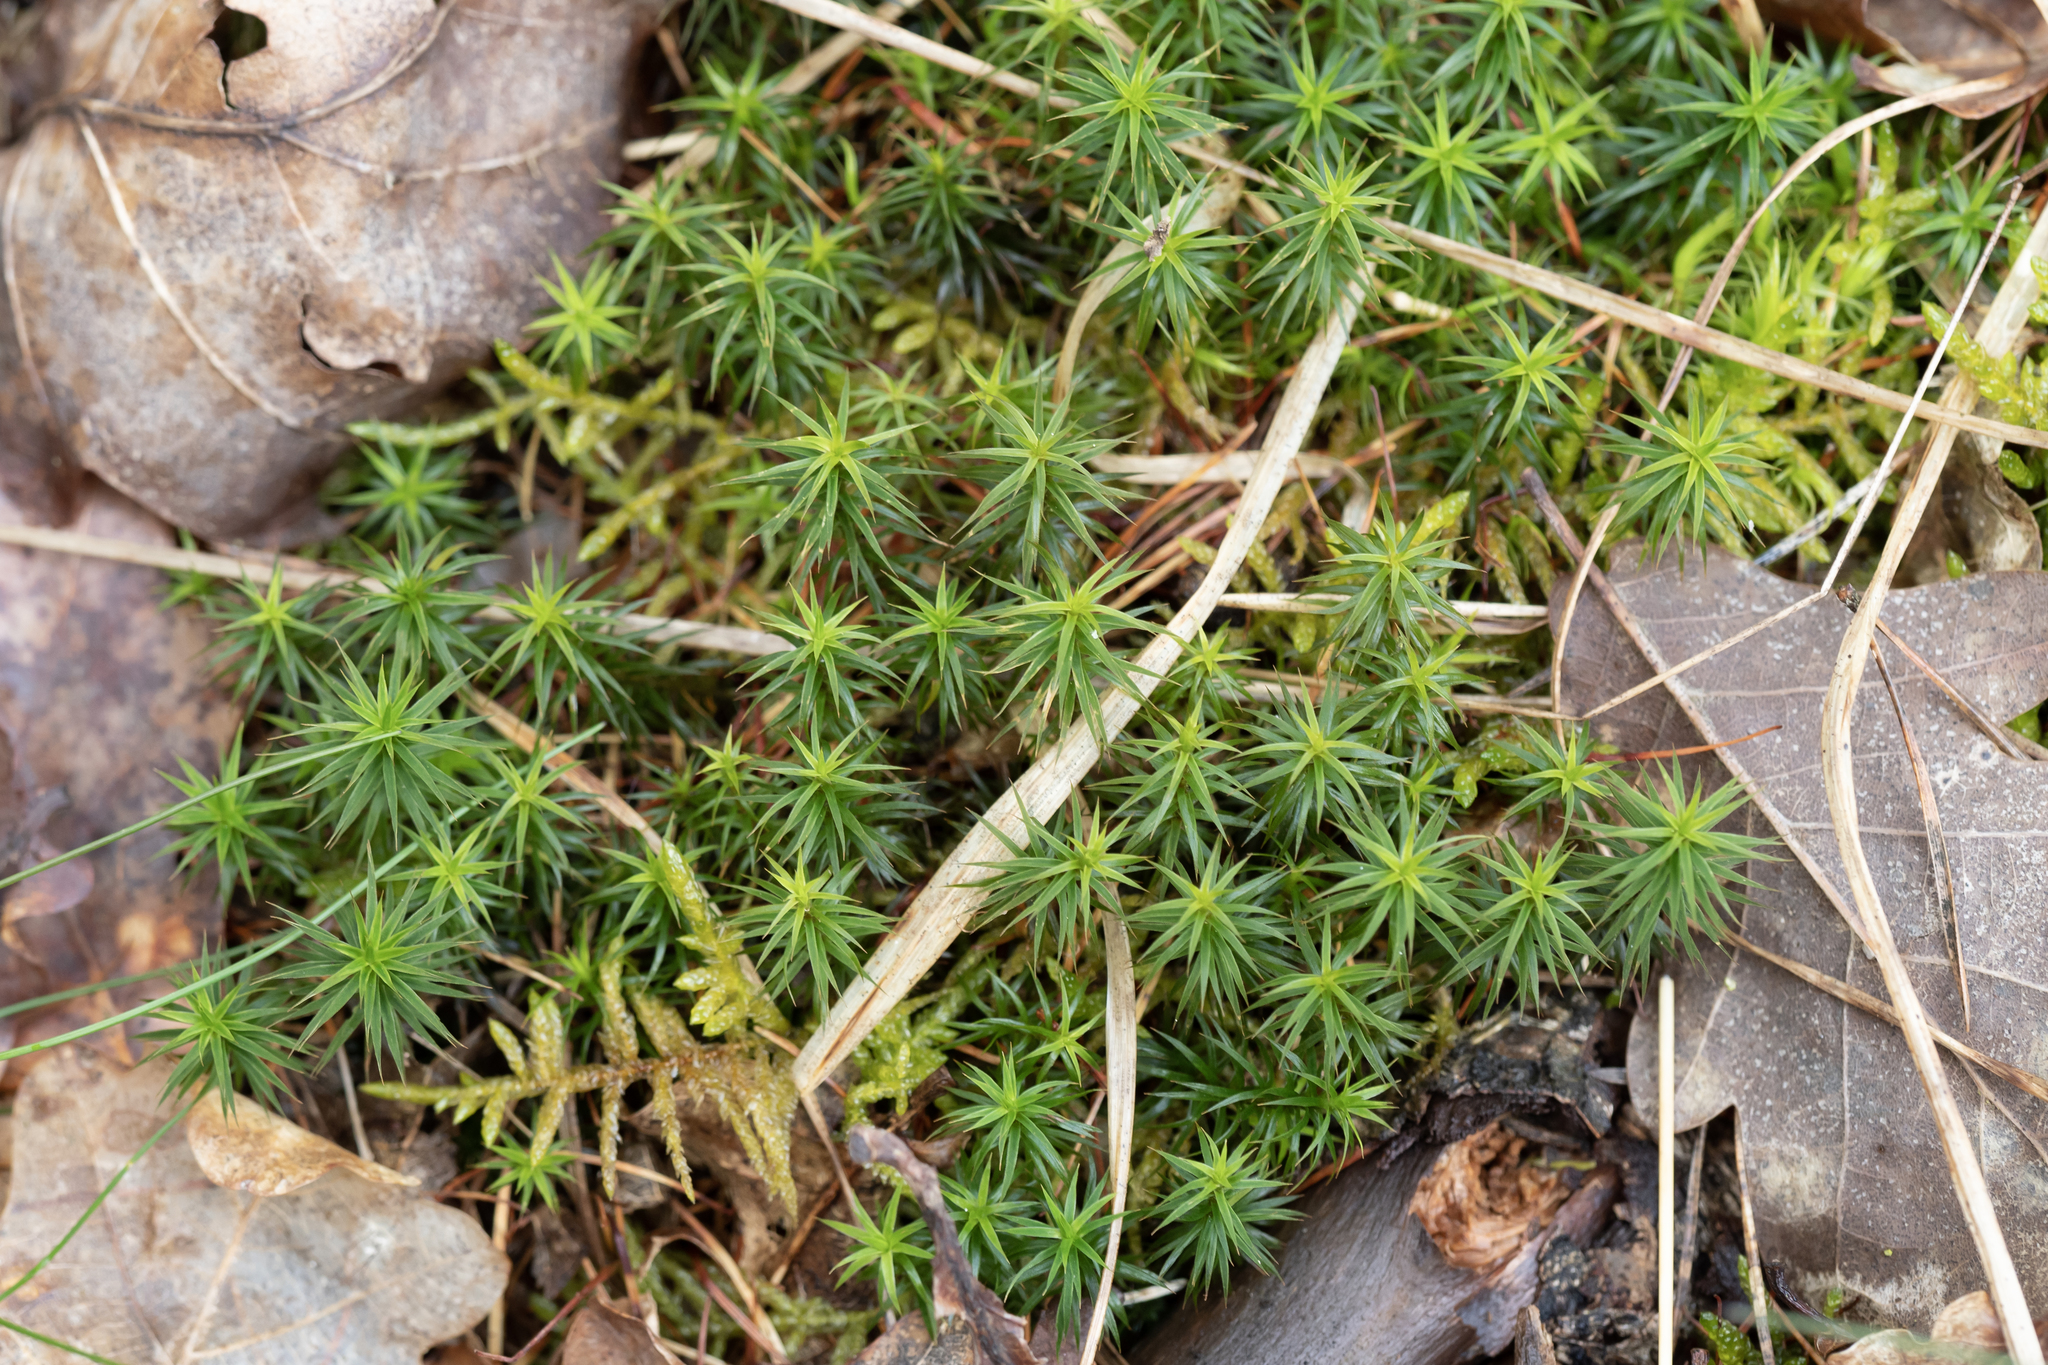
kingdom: Plantae
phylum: Bryophyta
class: Polytrichopsida
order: Polytrichales
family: Polytrichaceae
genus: Polytrichum
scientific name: Polytrichum formosum
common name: Bank haircap moss
